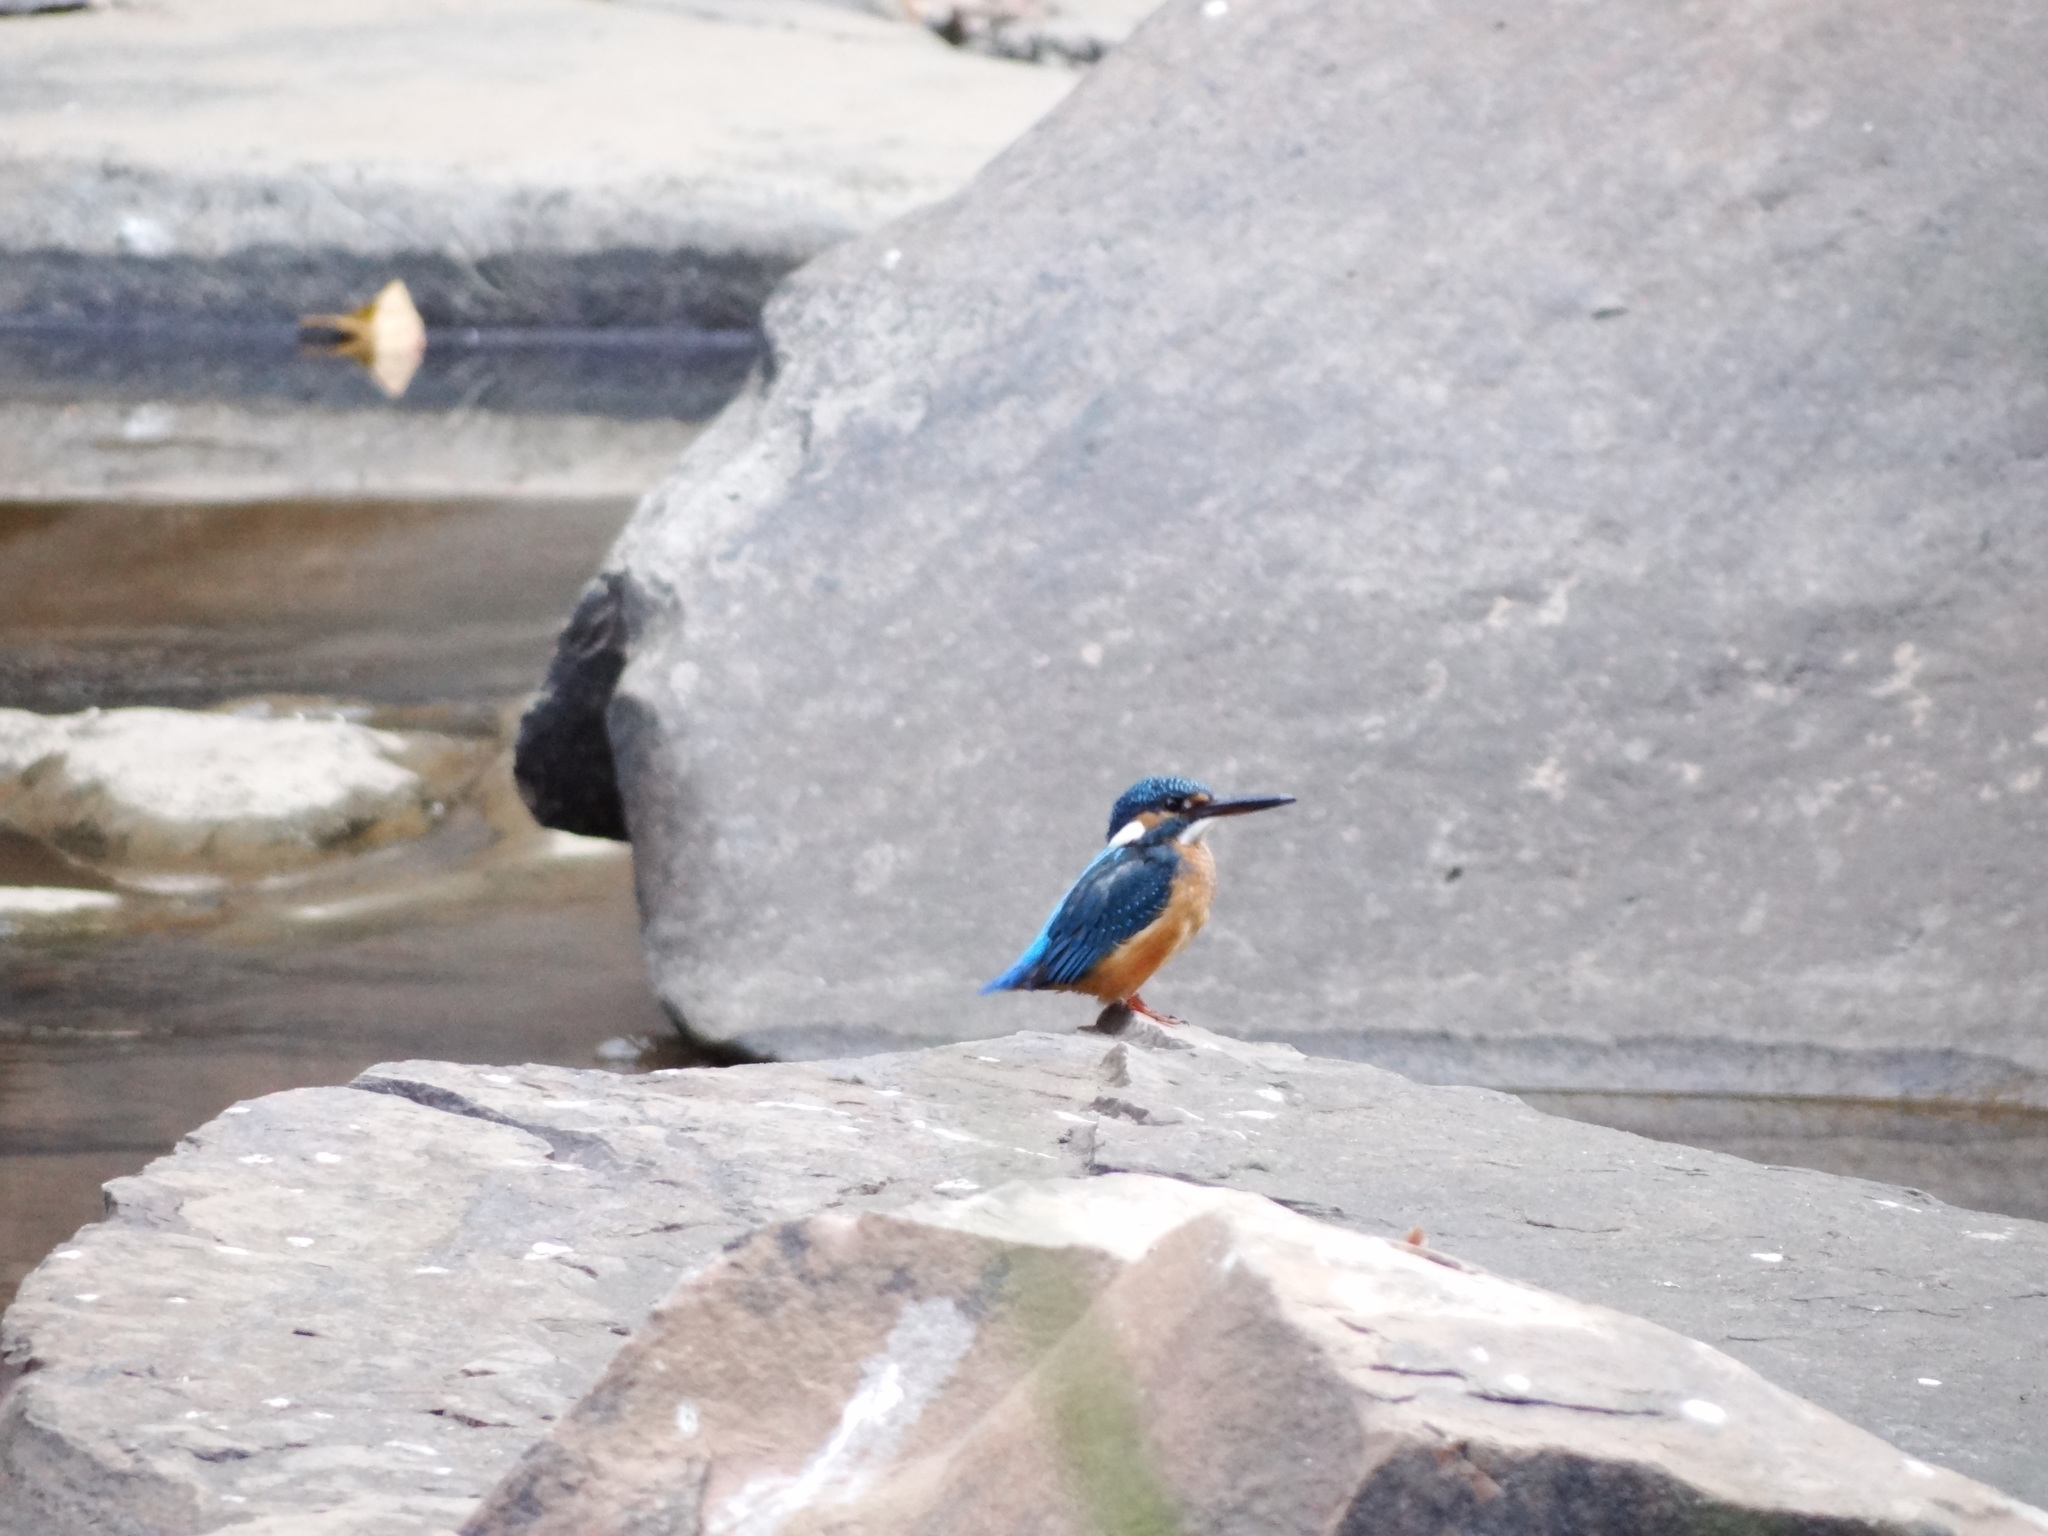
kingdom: Animalia
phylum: Chordata
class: Aves
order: Coraciiformes
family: Alcedinidae
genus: Alcedo
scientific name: Alcedo atthis
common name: Common kingfisher
